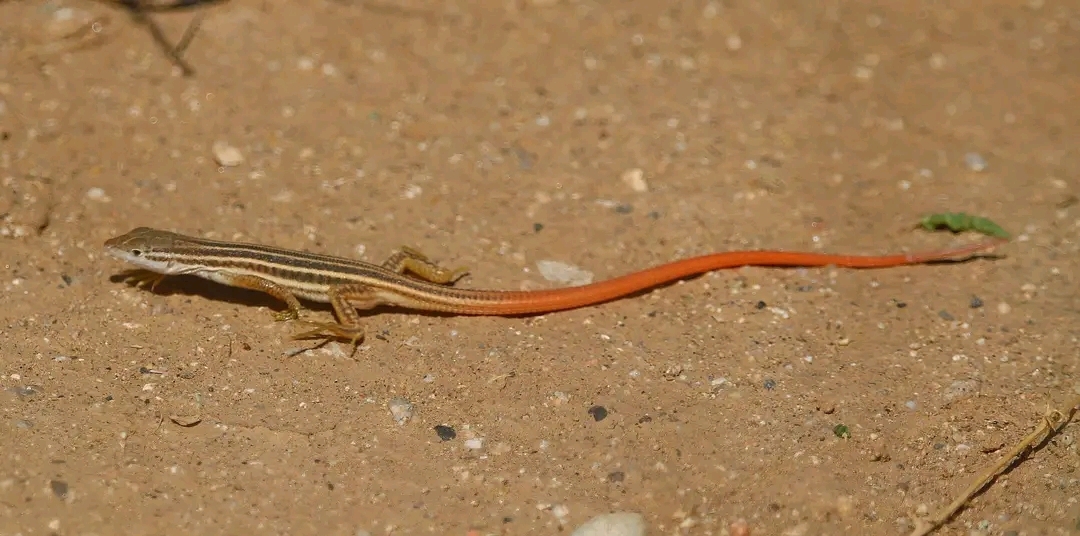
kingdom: Animalia
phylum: Chordata
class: Squamata
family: Lacertidae
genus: Philochortus
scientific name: Philochortus zolii
